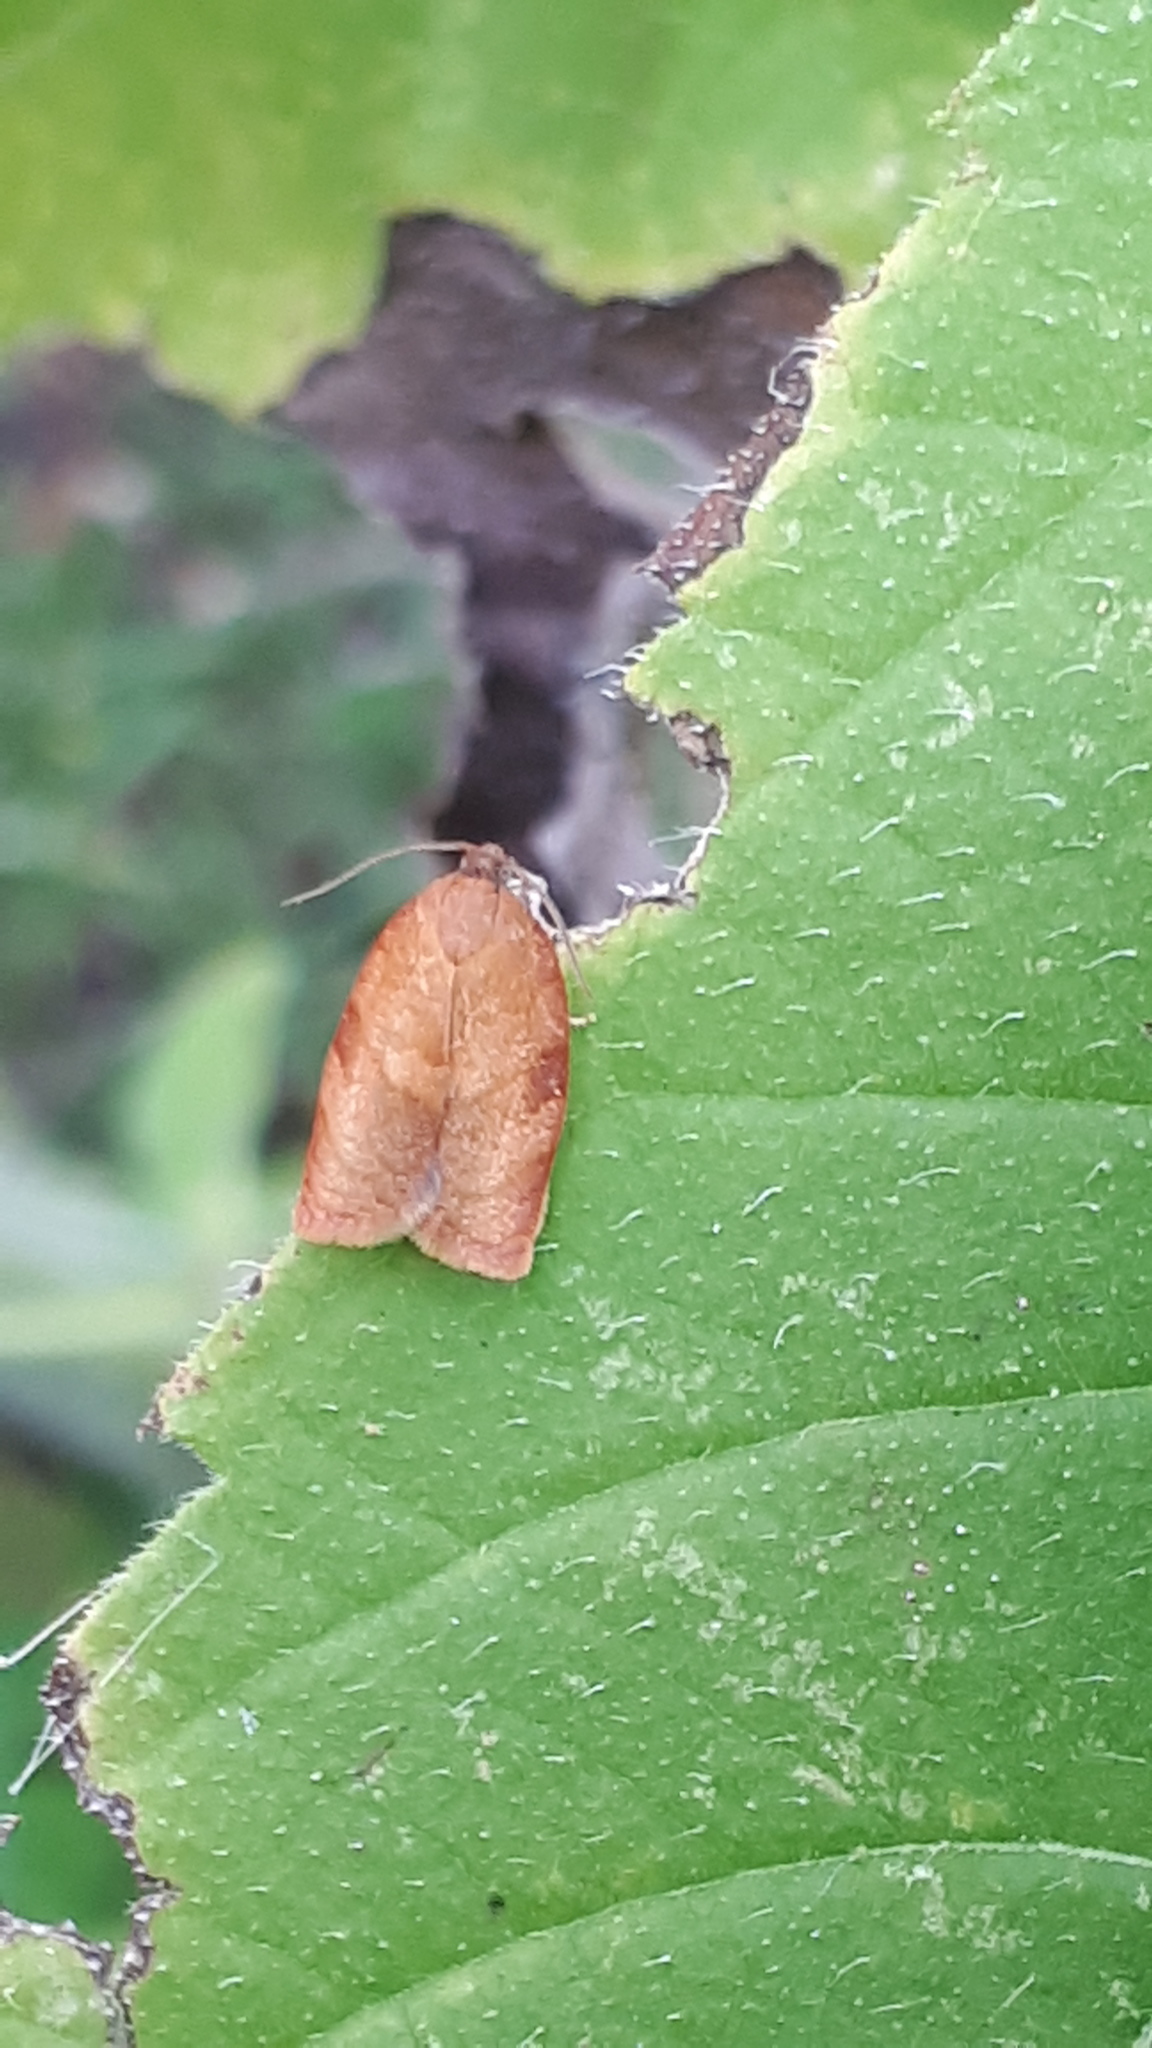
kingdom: Animalia
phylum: Arthropoda
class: Insecta
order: Lepidoptera
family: Tortricidae
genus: Cacoecimorpha
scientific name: Cacoecimorpha pronubana
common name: Carnation tortrix
